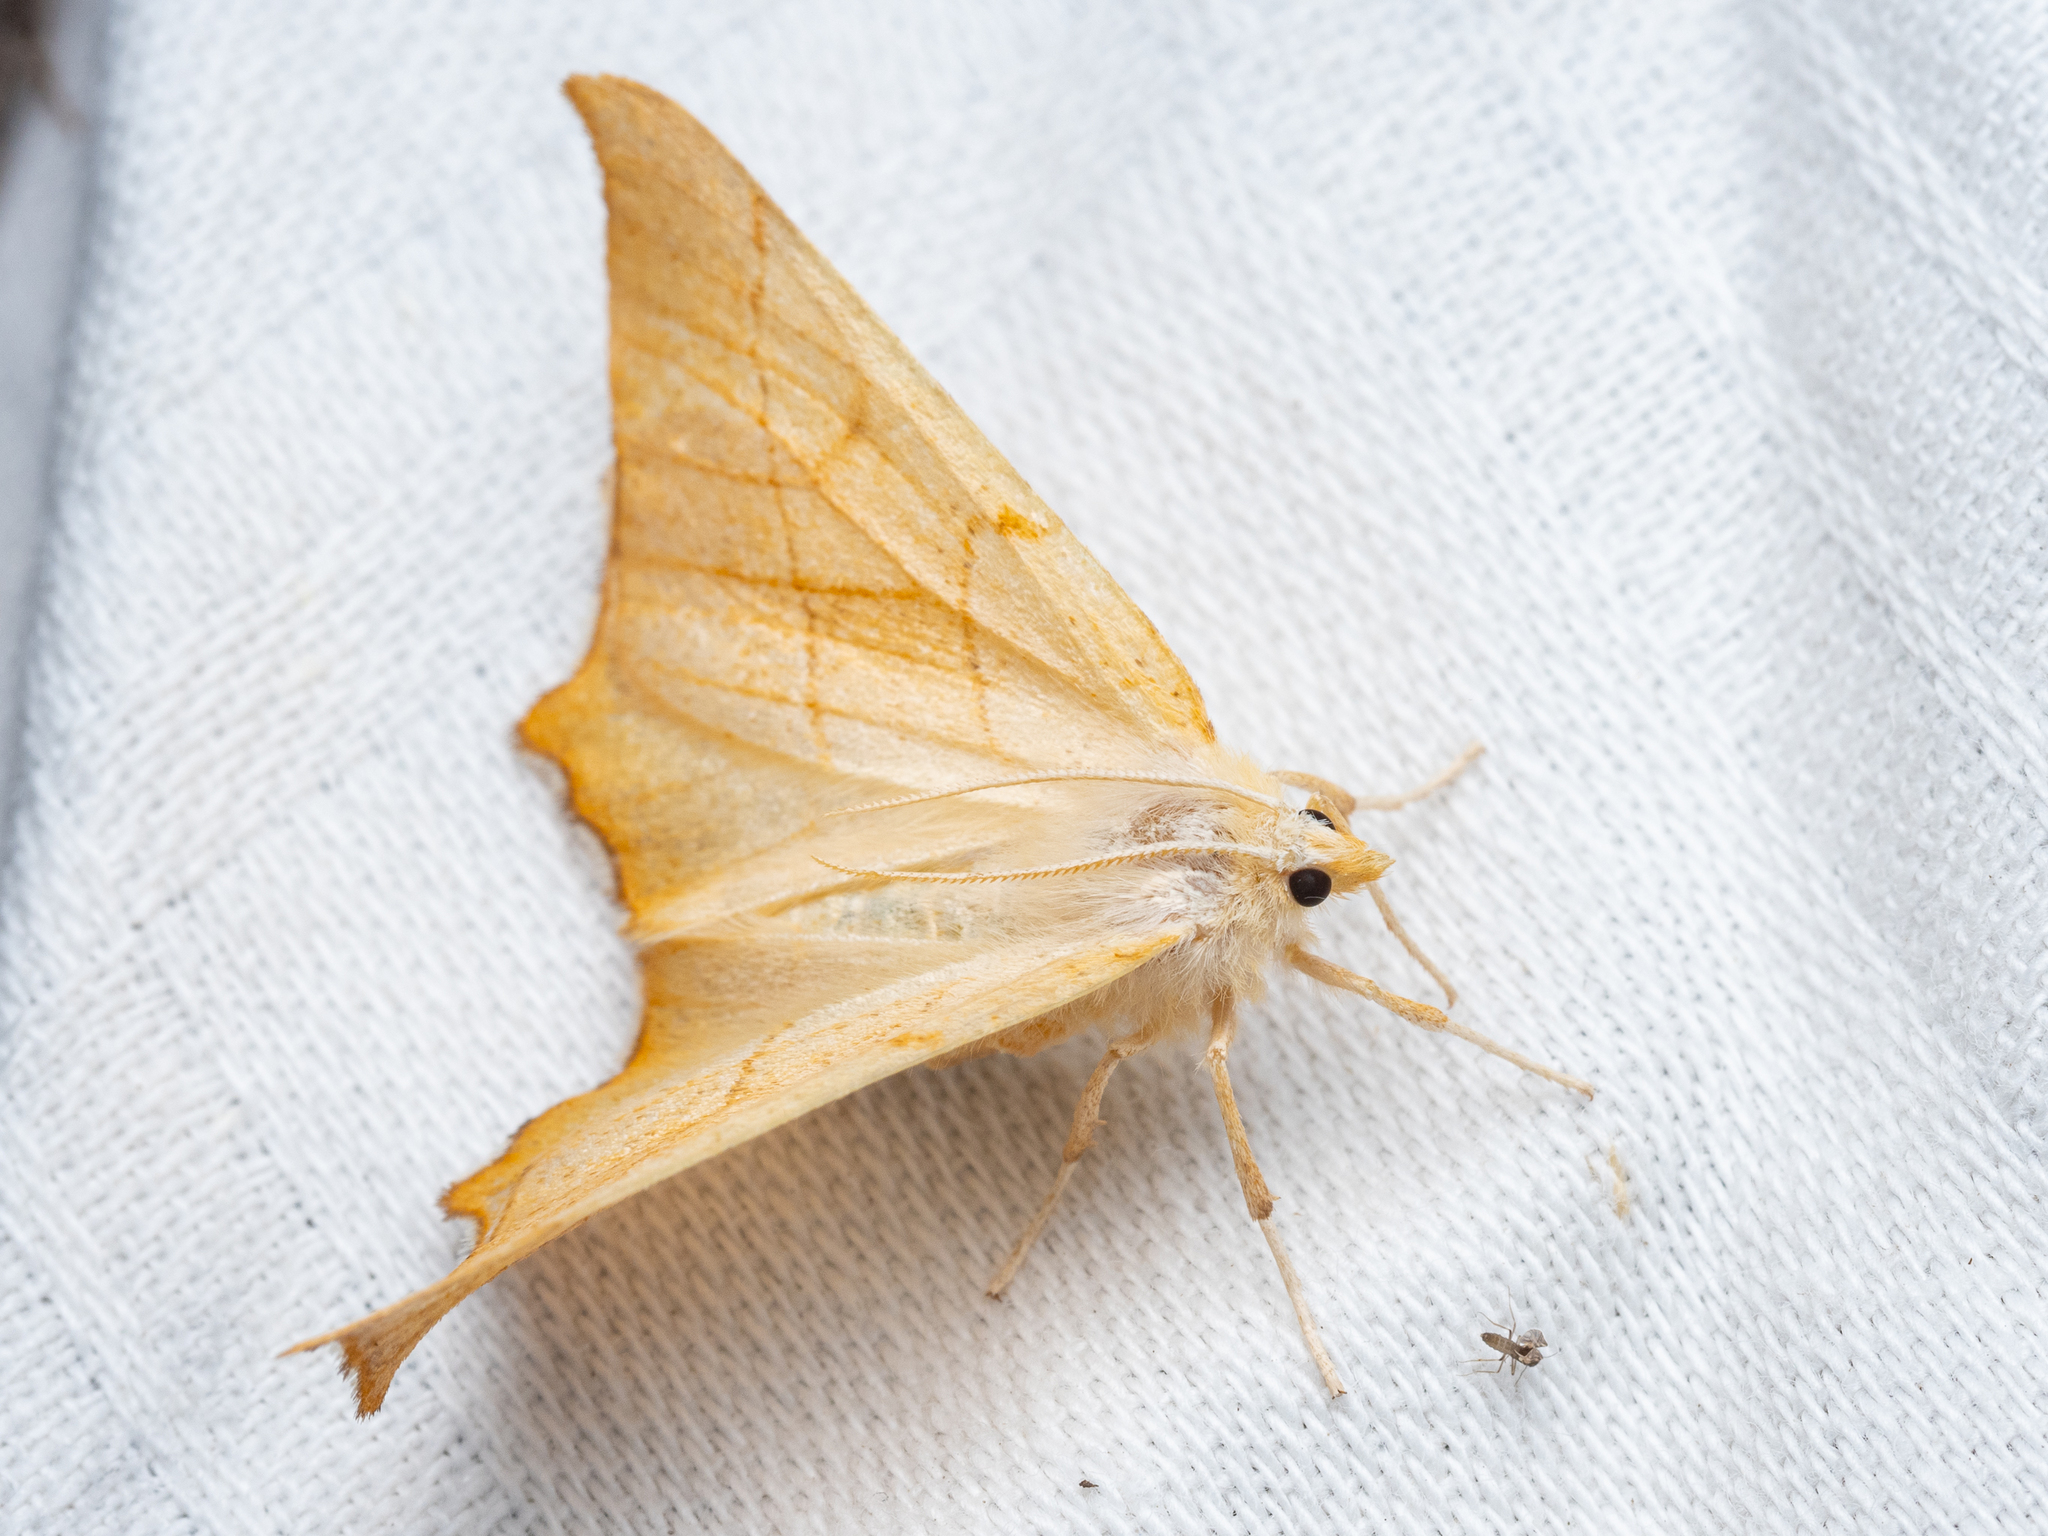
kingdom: Animalia
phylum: Arthropoda
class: Insecta
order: Lepidoptera
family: Geometridae
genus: Ennomos
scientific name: Ennomos quercinaria
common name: August thorn
